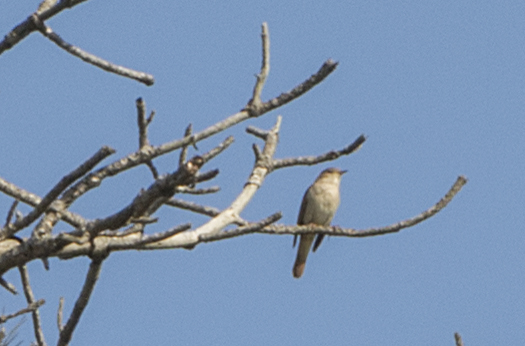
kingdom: Animalia
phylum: Chordata
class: Aves
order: Passeriformes
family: Muscicapidae
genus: Luscinia
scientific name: Luscinia megarhynchos
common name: Common nightingale
